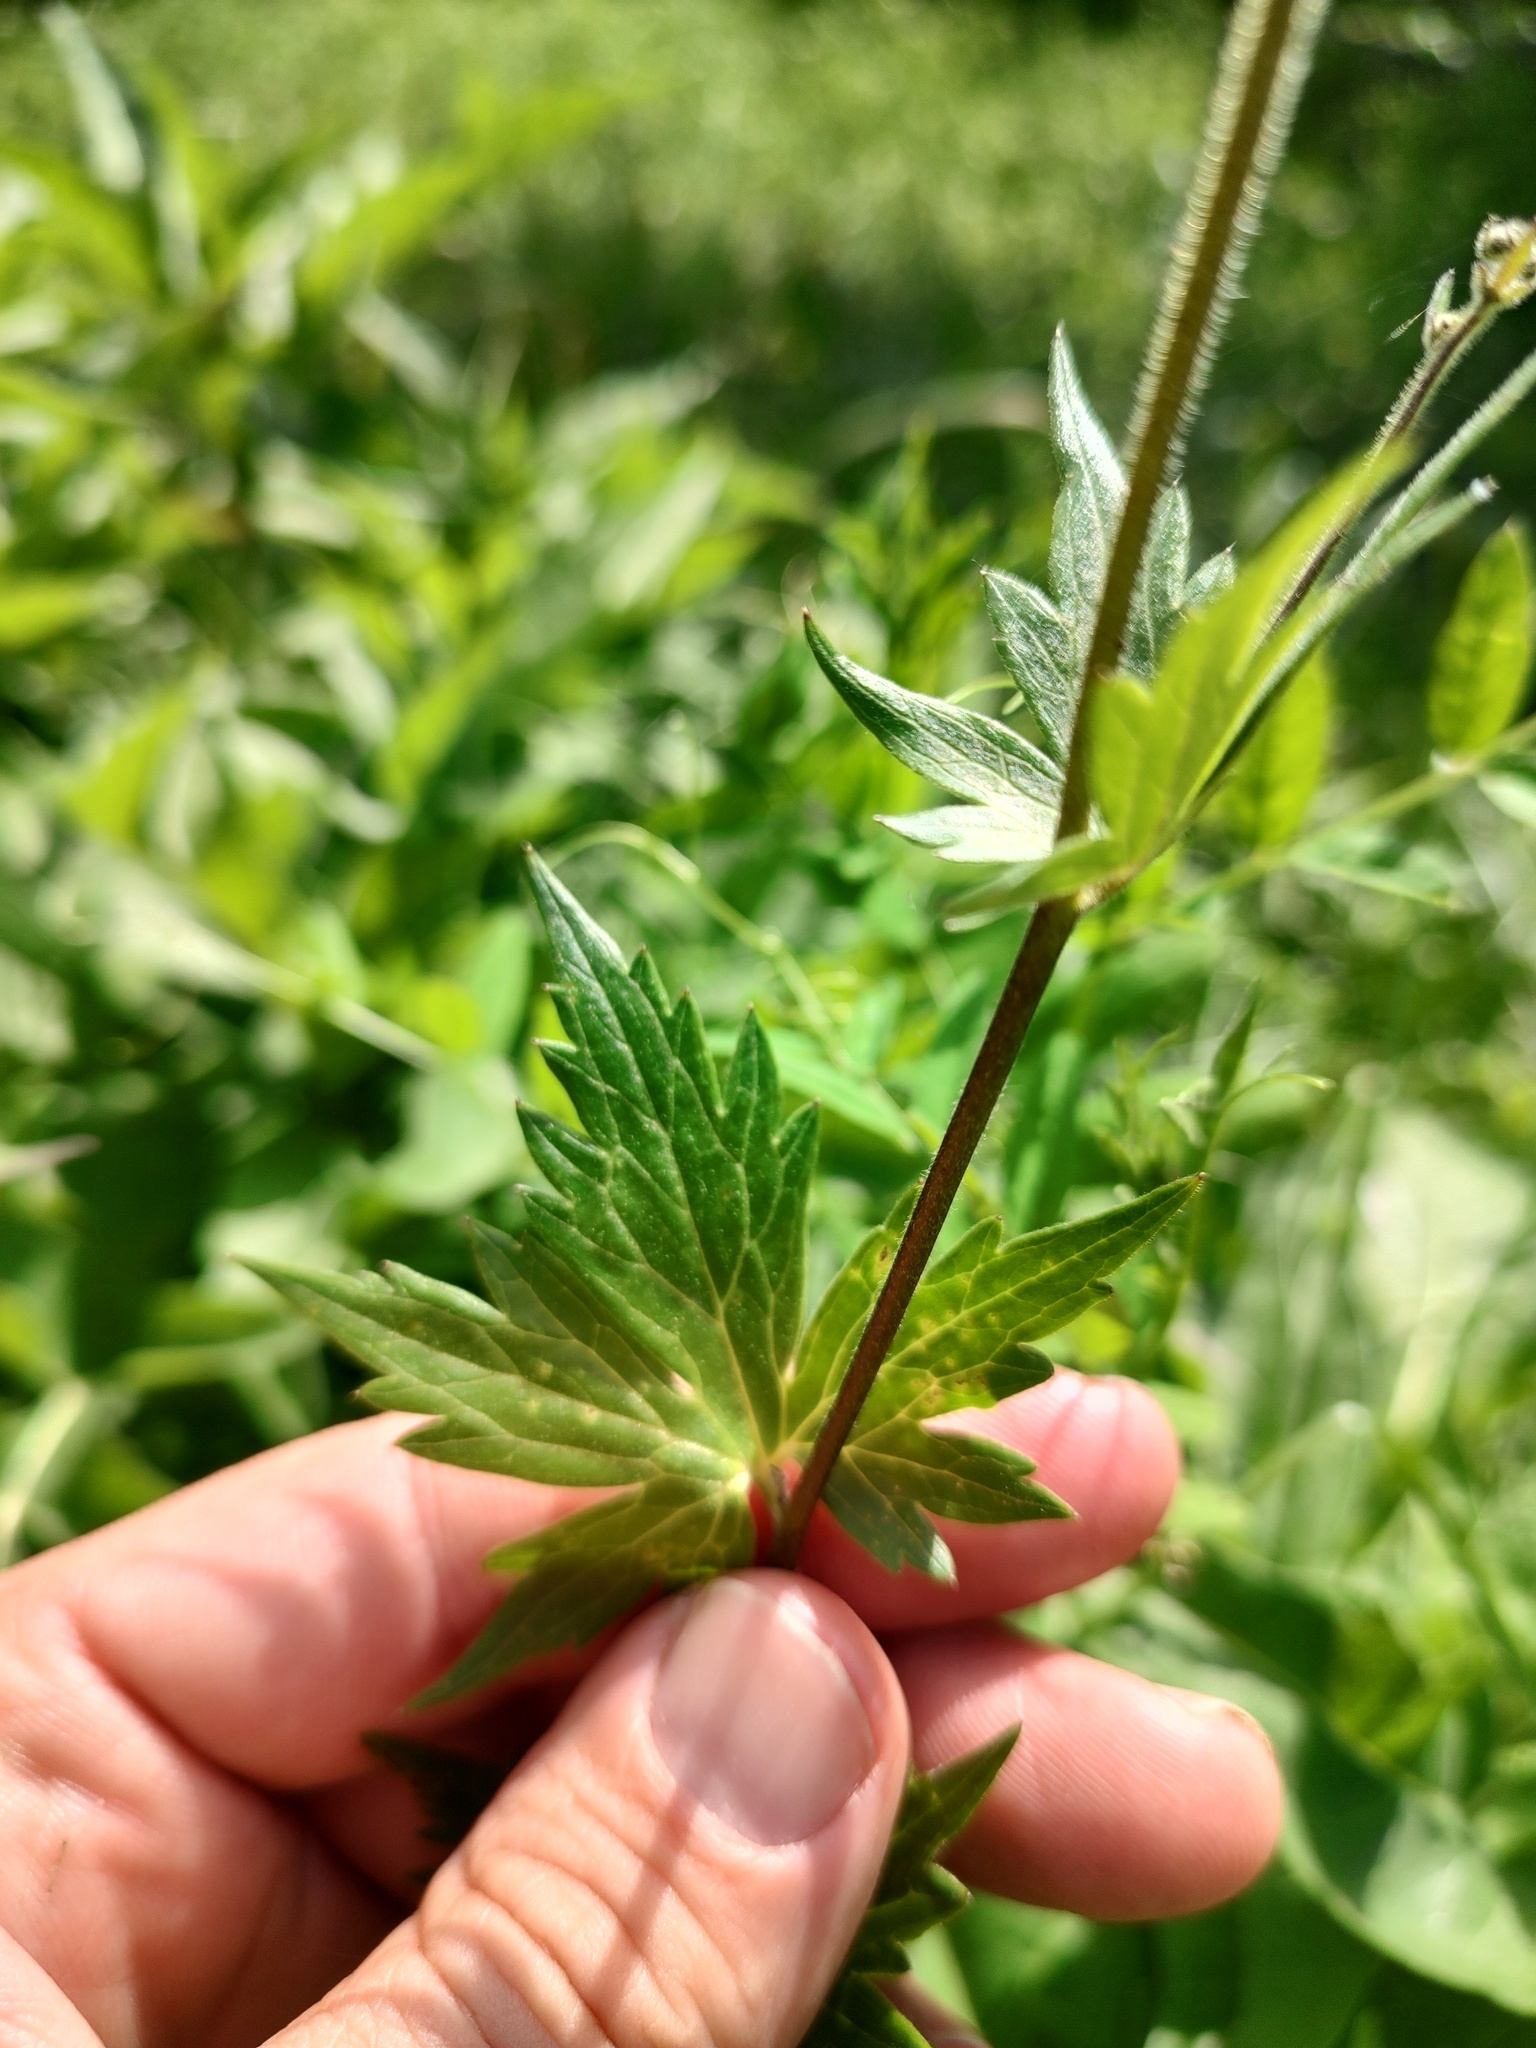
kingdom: Plantae
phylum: Tracheophyta
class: Magnoliopsida
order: Ranunculales
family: Ranunculaceae
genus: Delphinium
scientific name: Delphinium viridescens
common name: Wenatchee larkspur
